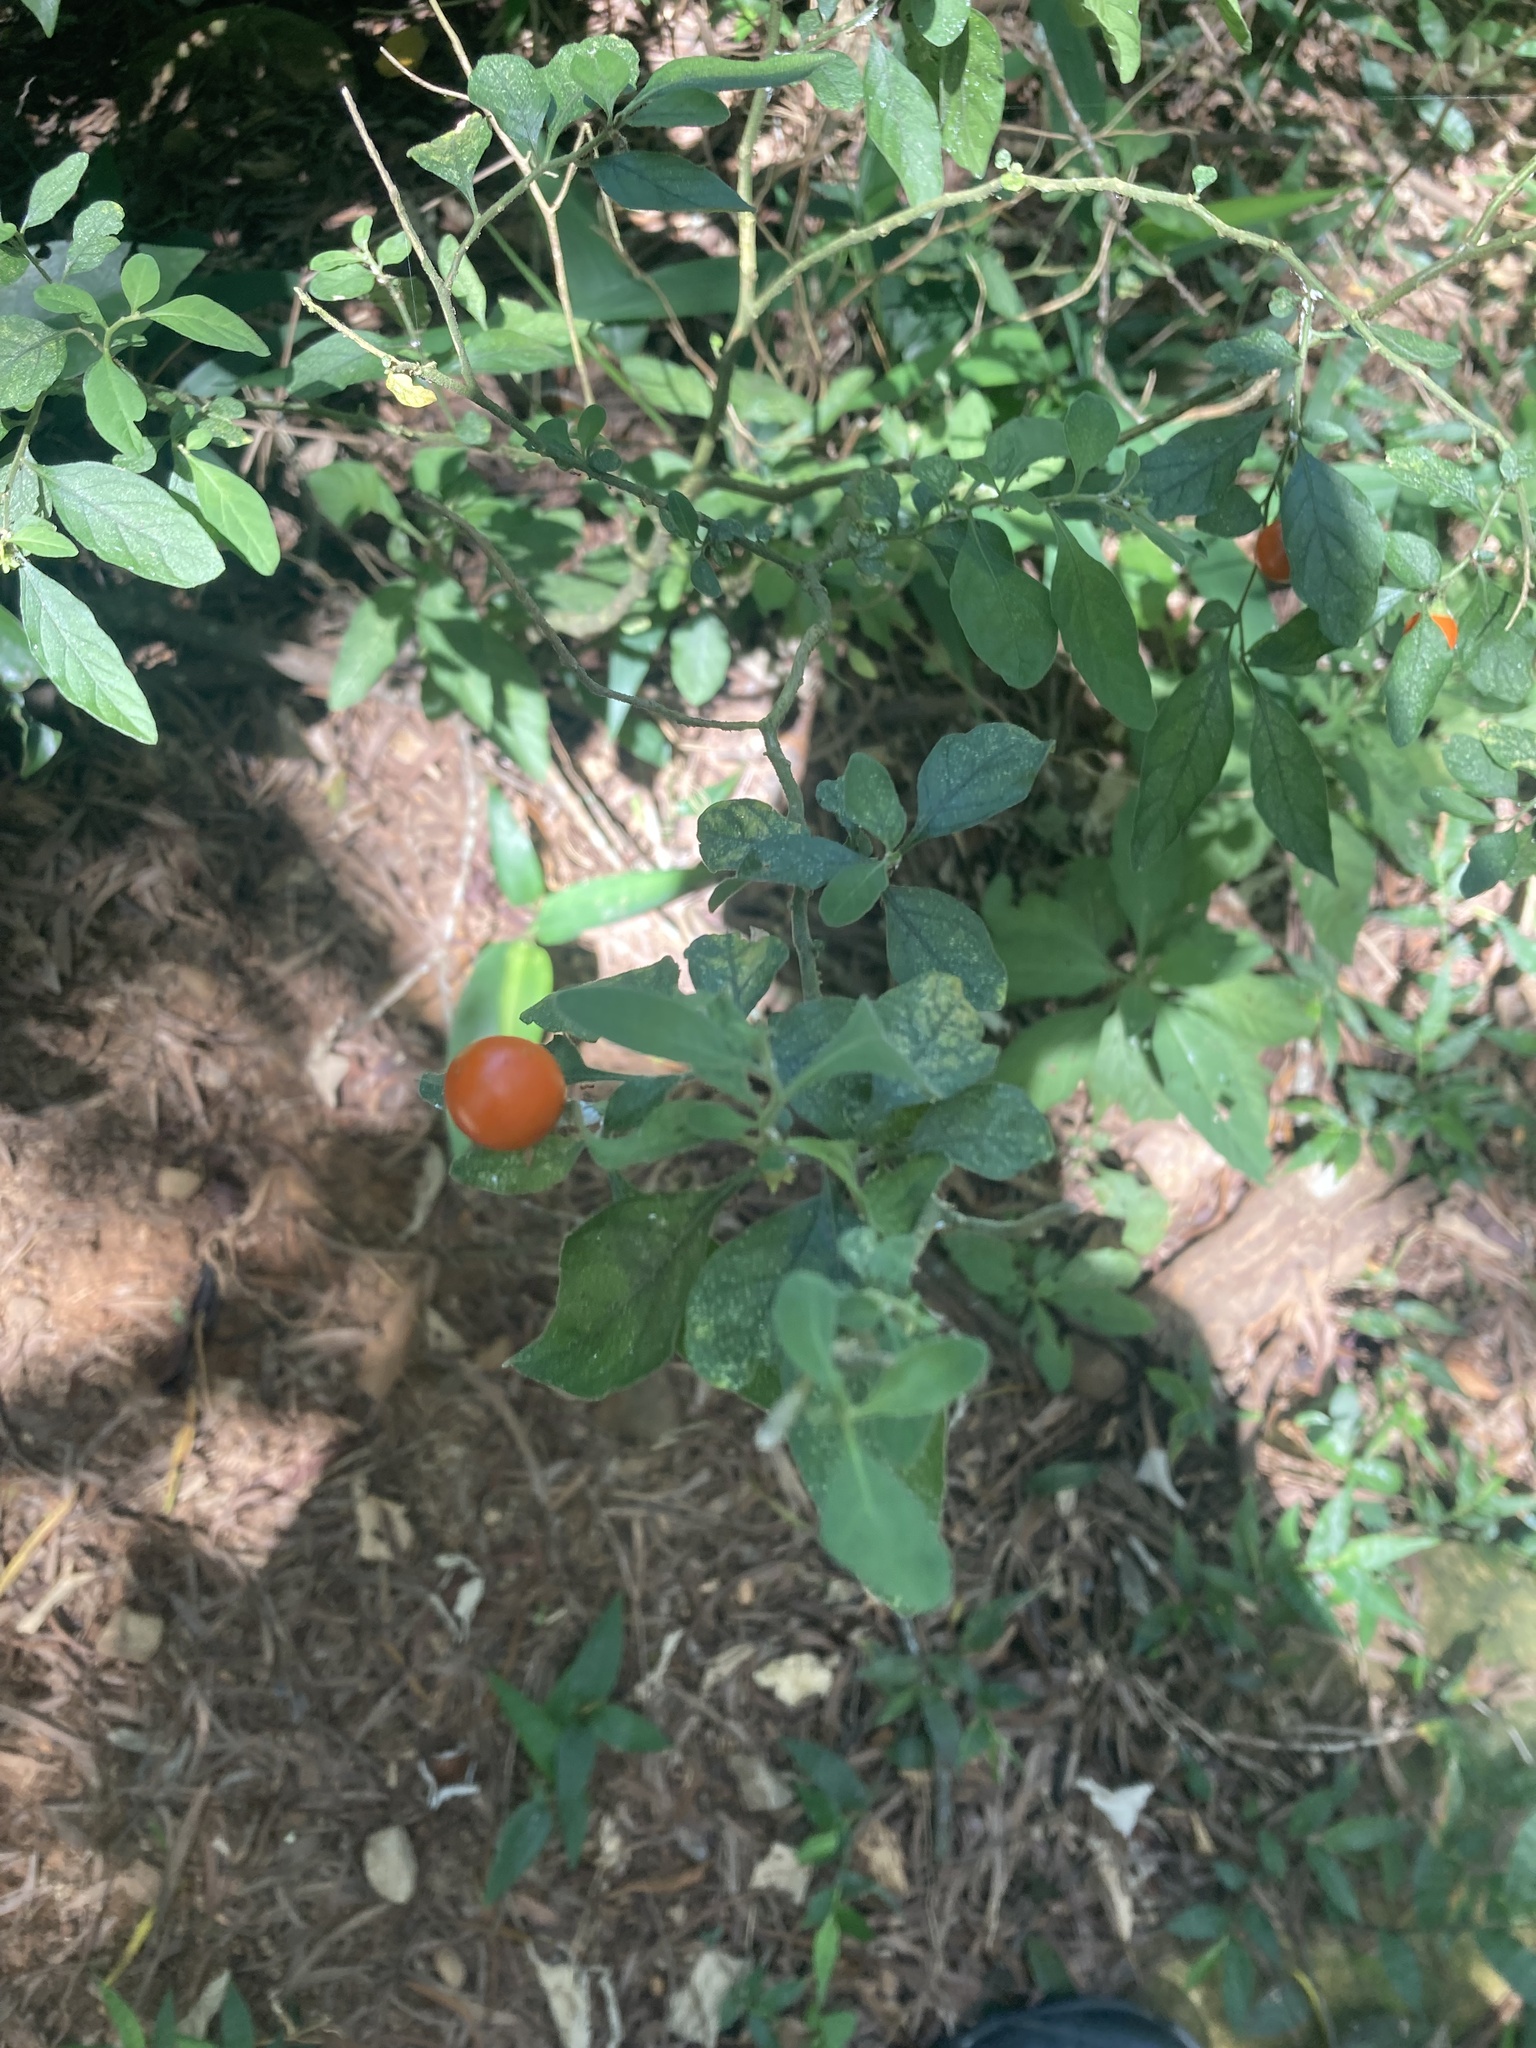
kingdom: Plantae
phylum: Tracheophyta
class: Magnoliopsida
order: Solanales
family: Solanaceae
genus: Solanum
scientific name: Solanum pseudocapsicum
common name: Jerusalem cherry
